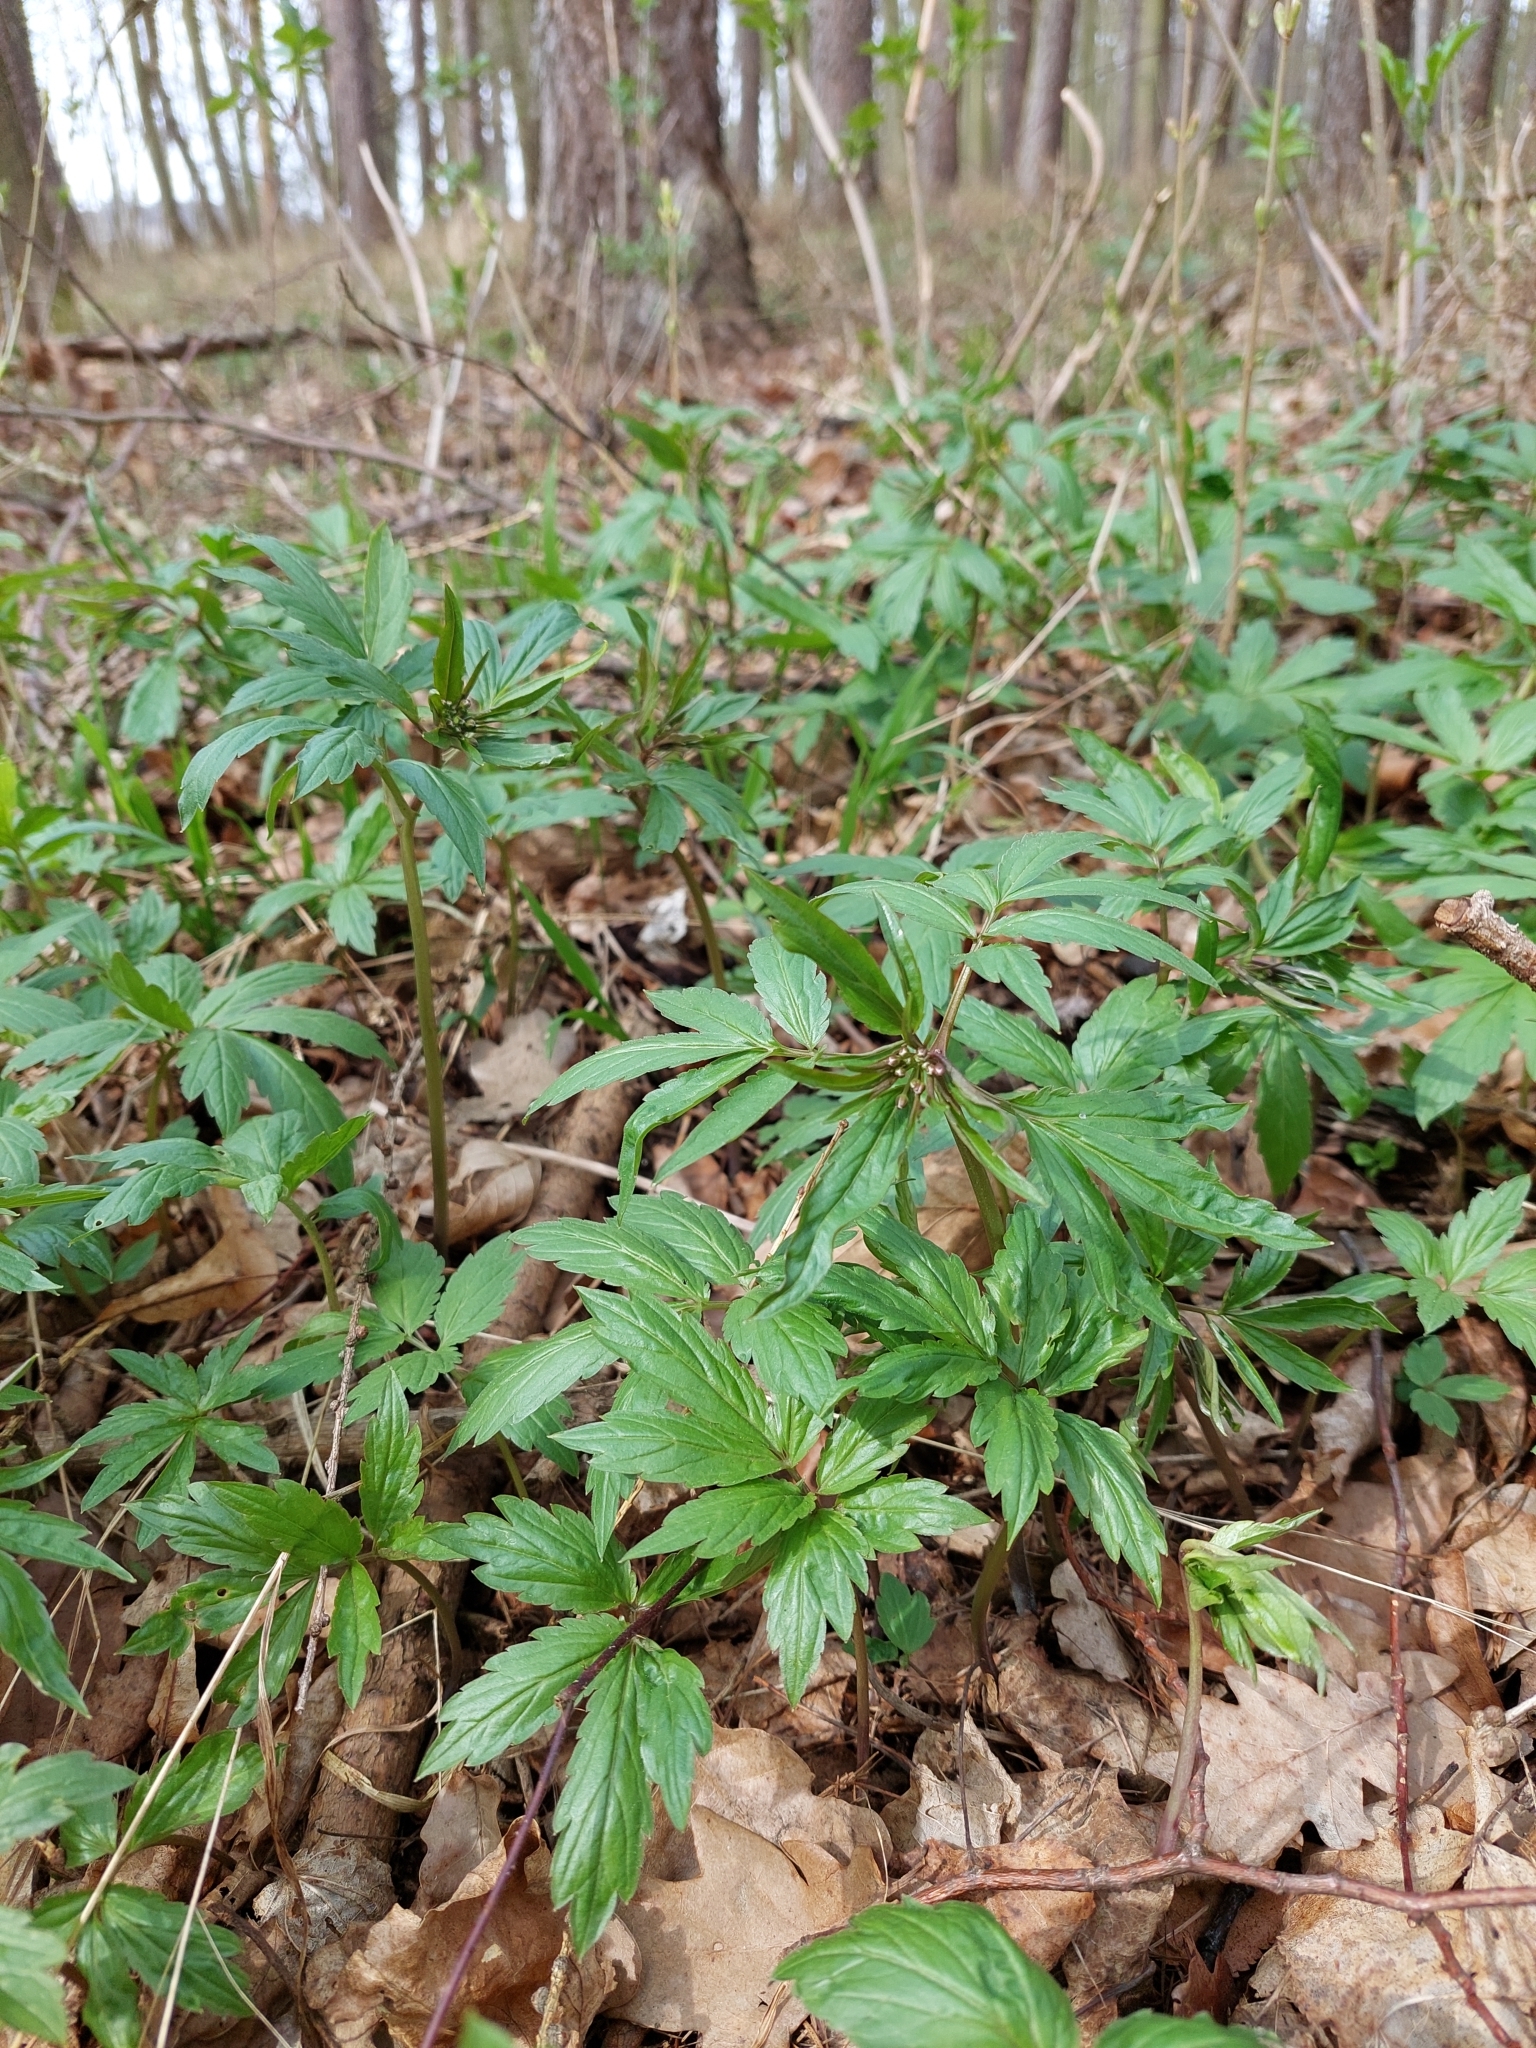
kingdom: Plantae
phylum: Tracheophyta
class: Magnoliopsida
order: Brassicales
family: Brassicaceae
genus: Cardamine
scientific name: Cardamine bulbifera
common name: Coralroot bittercress
